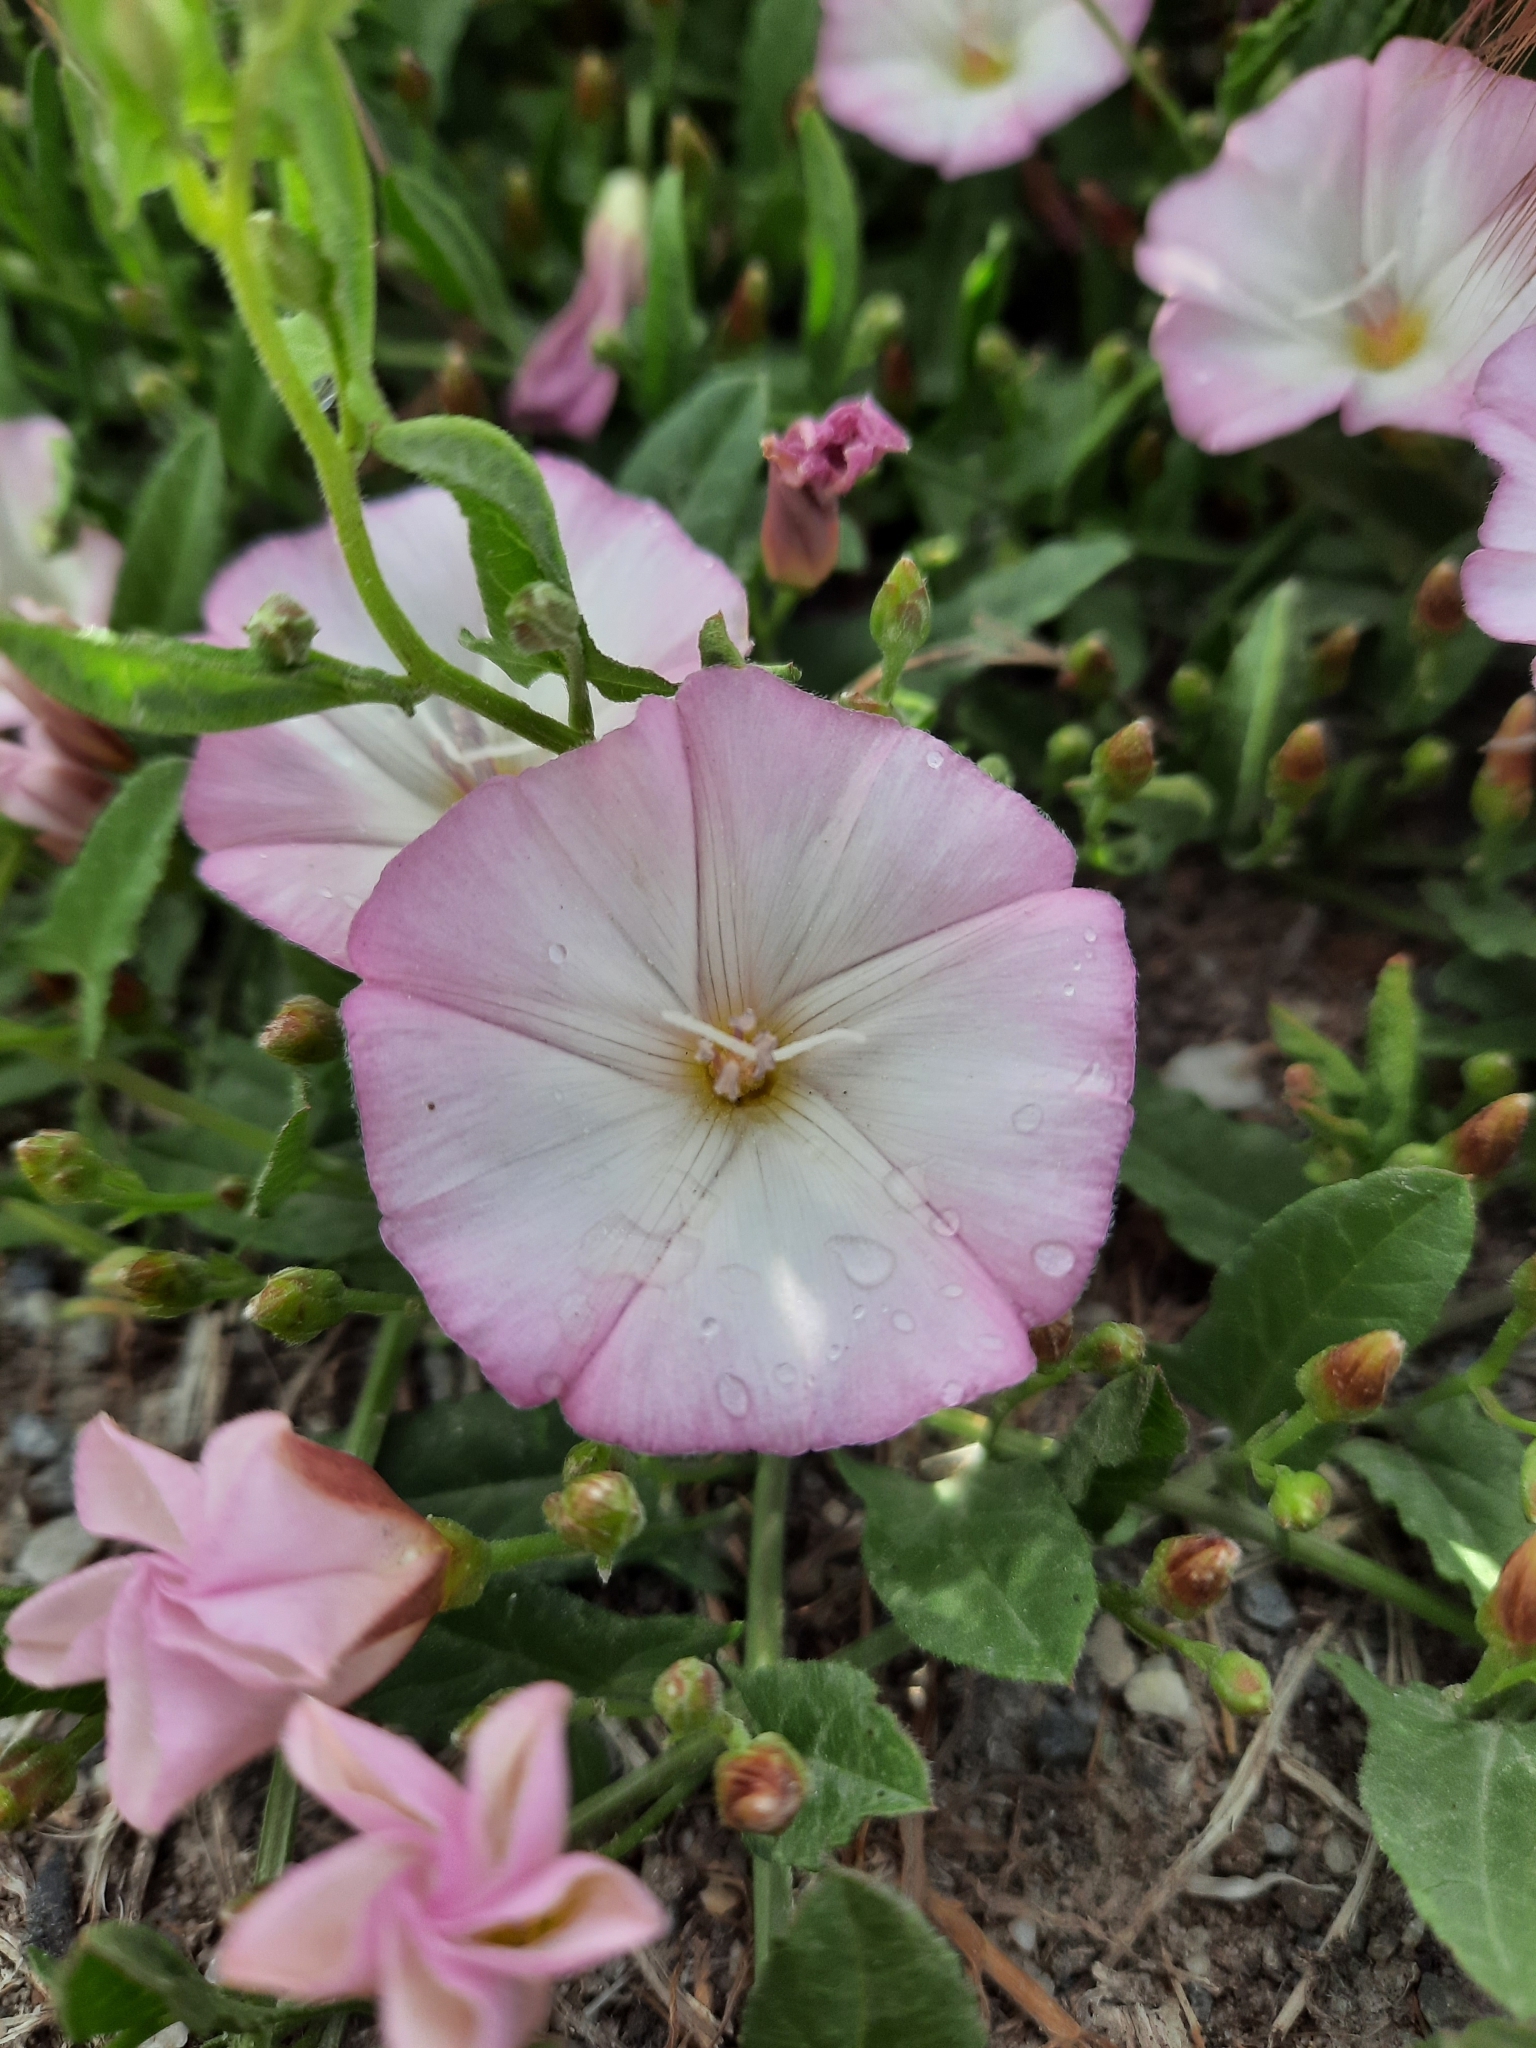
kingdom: Plantae
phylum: Tracheophyta
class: Magnoliopsida
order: Solanales
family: Convolvulaceae
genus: Convolvulus
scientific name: Convolvulus arvensis
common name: Field bindweed
